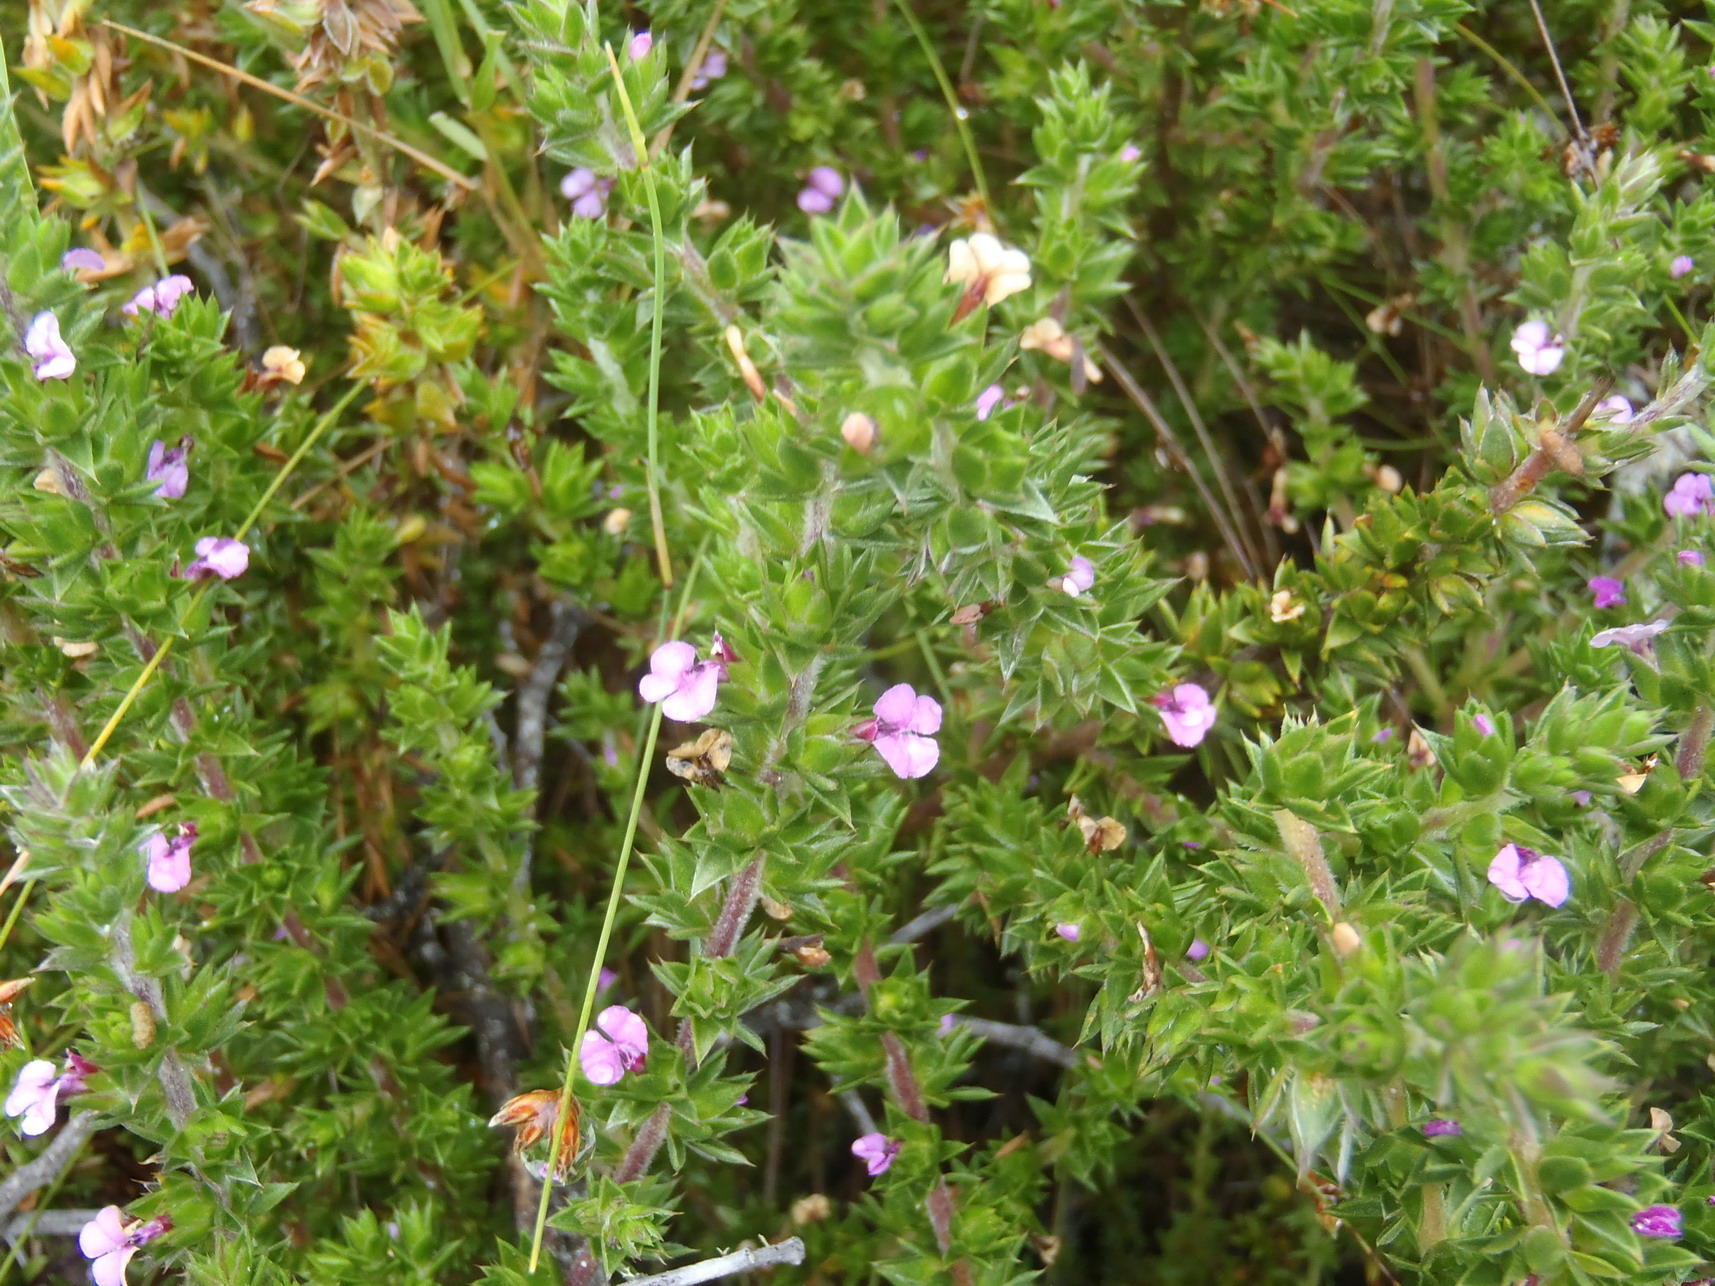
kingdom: Plantae
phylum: Tracheophyta
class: Magnoliopsida
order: Fabales
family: Polygalaceae
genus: Muraltia
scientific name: Muraltia squarrosa
